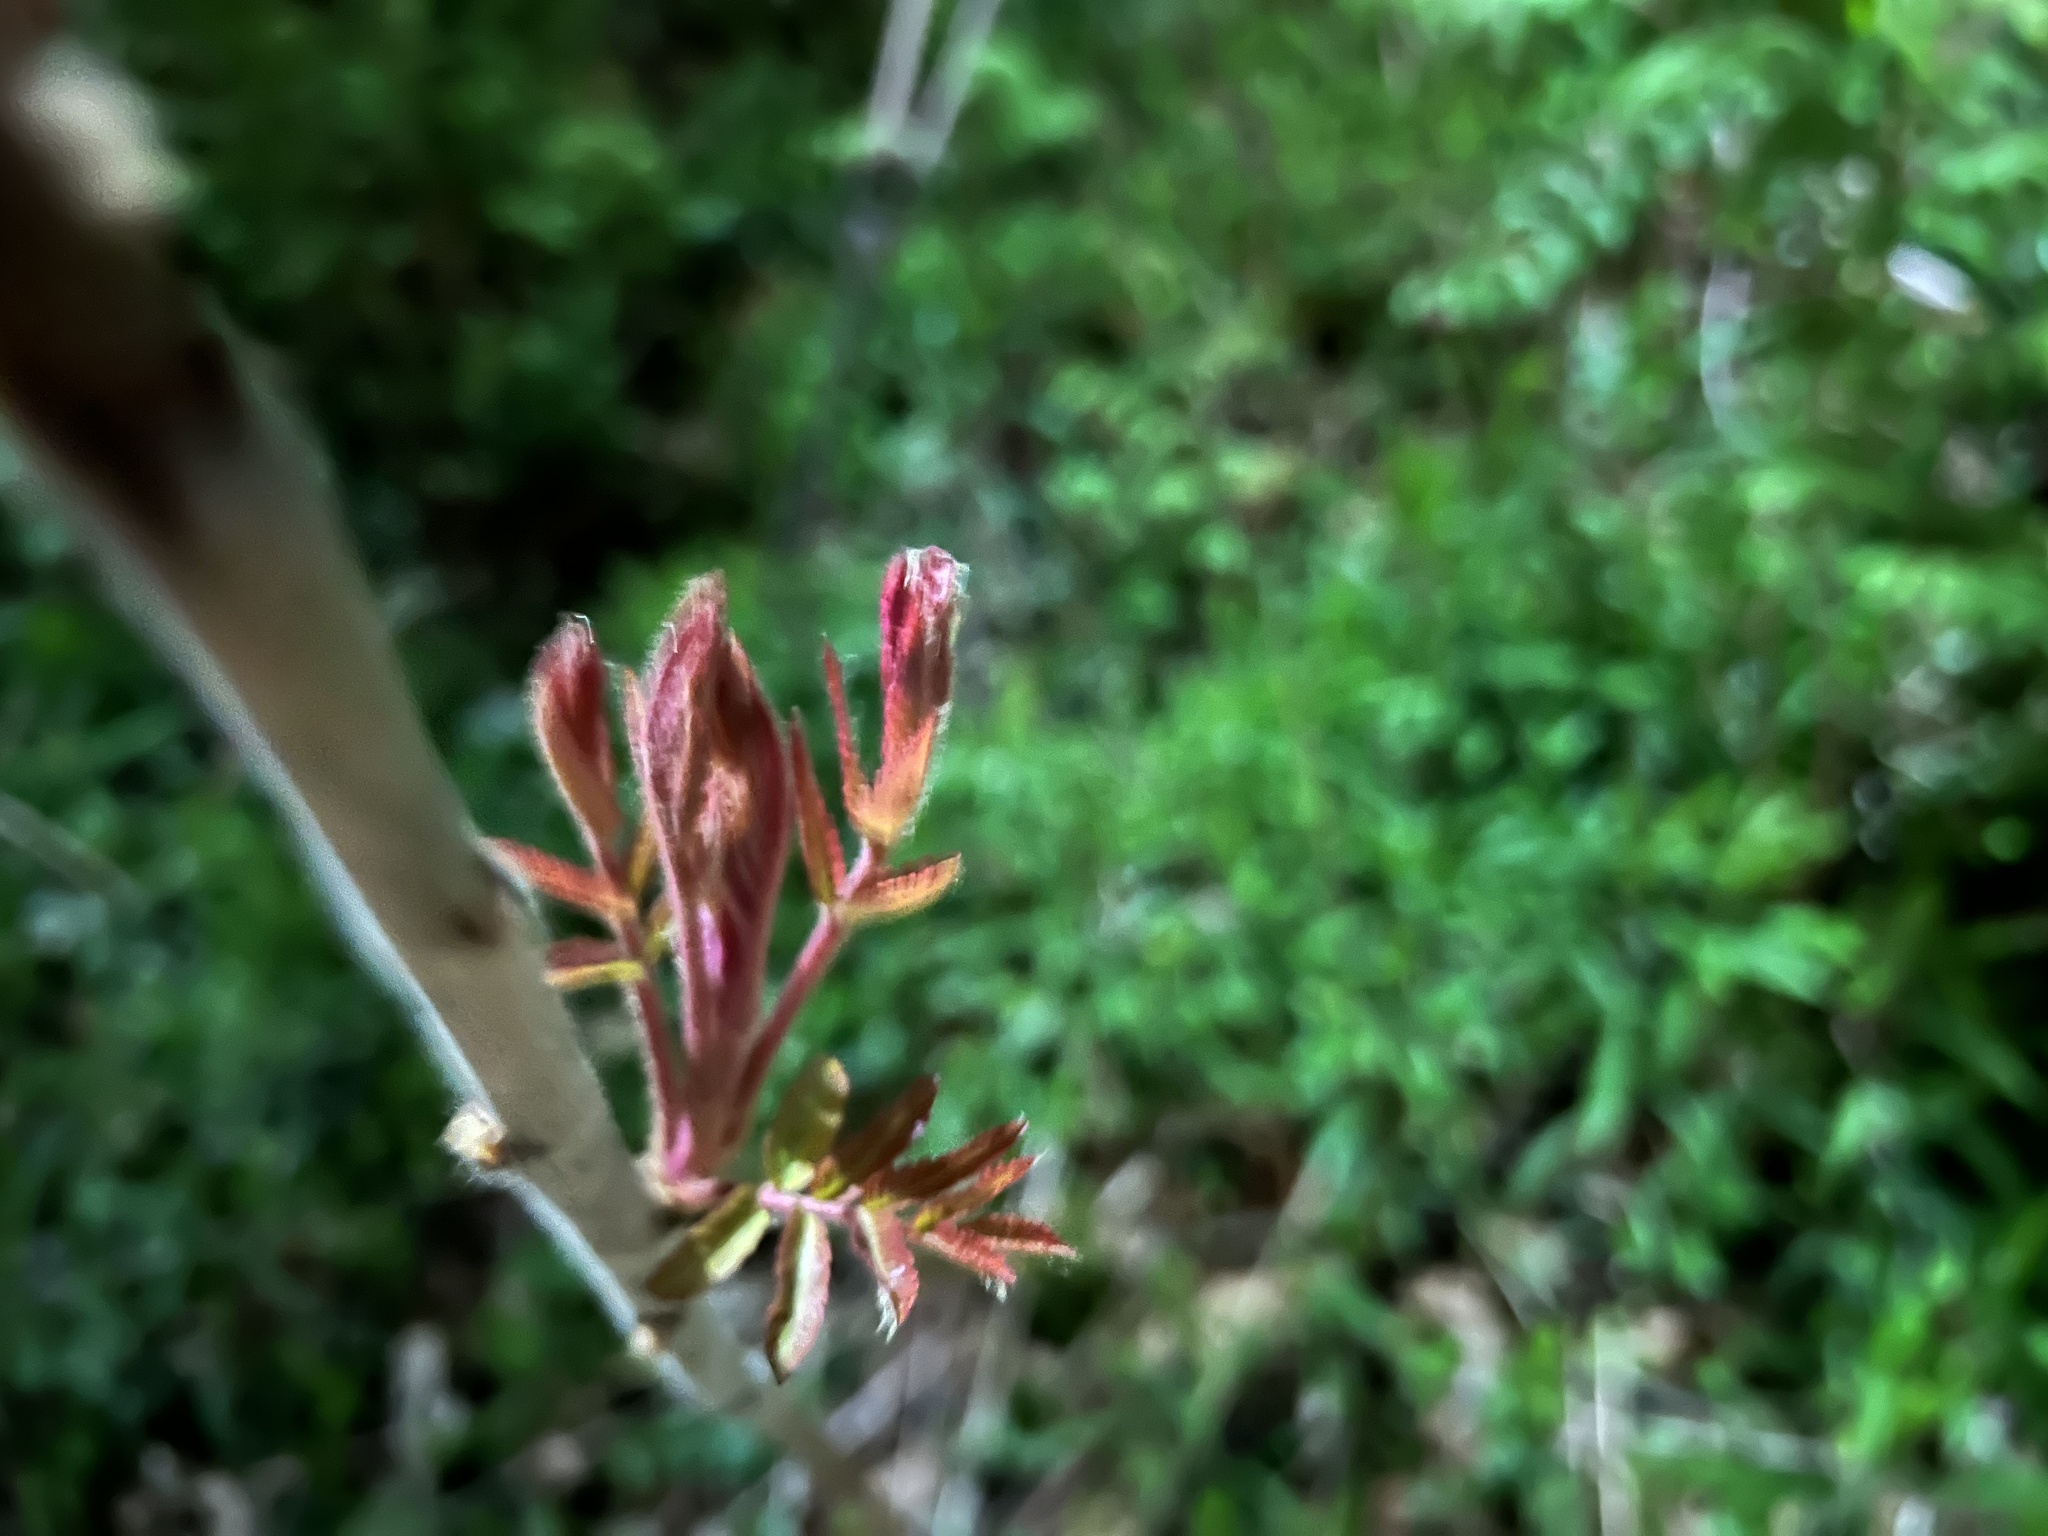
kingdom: Plantae
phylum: Tracheophyta
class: Magnoliopsida
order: Sapindales
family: Anacardiaceae
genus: Rhus
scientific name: Rhus typhina
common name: Staghorn sumac
